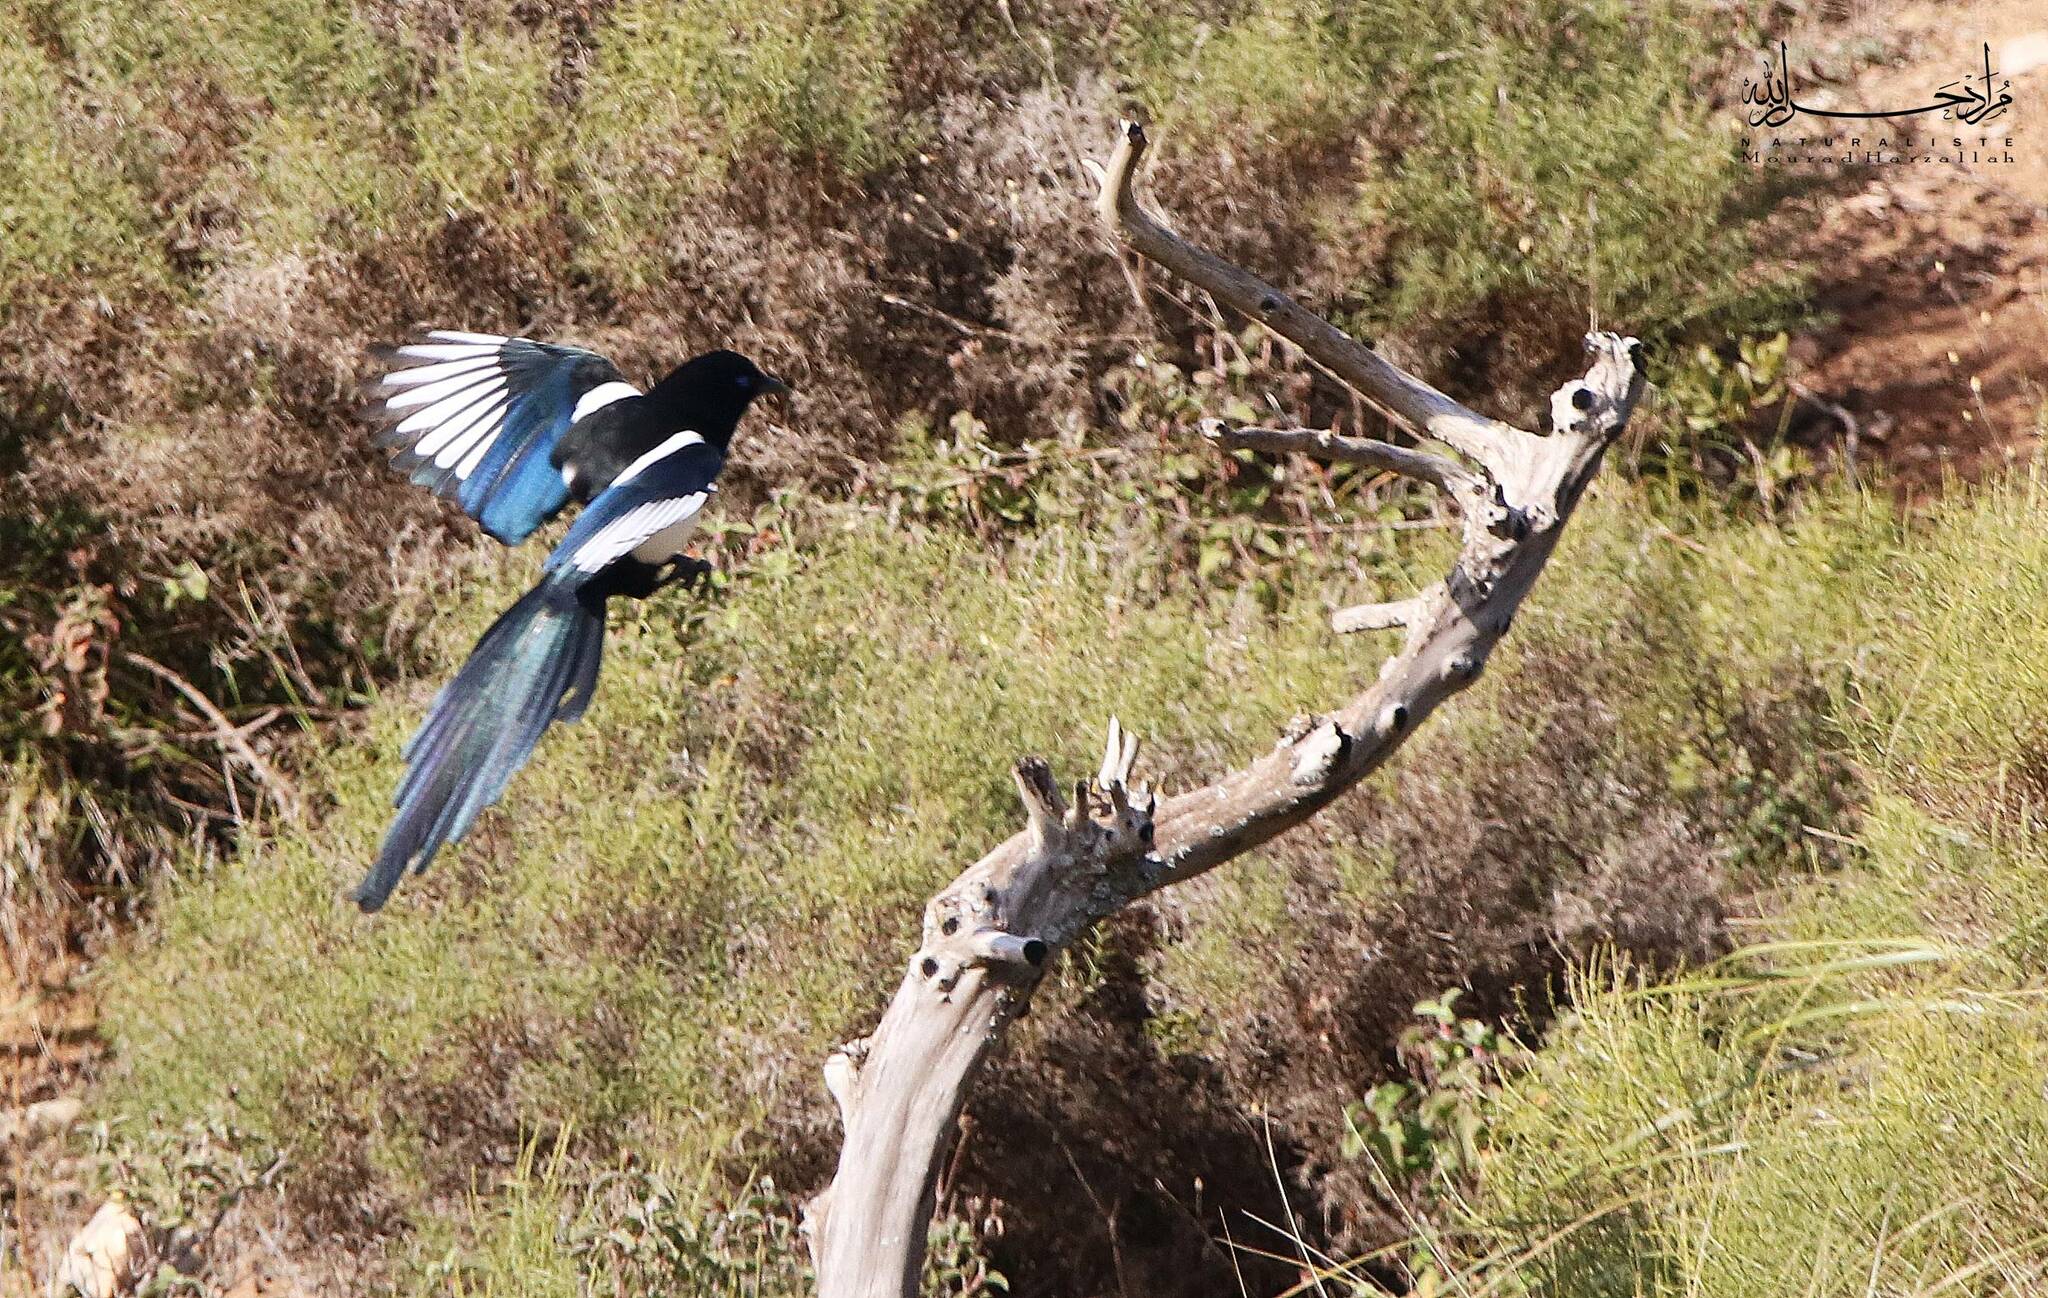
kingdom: Animalia
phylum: Chordata
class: Aves
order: Passeriformes
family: Corvidae
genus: Pica
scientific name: Pica mauritanica
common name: Maghreb magpie
